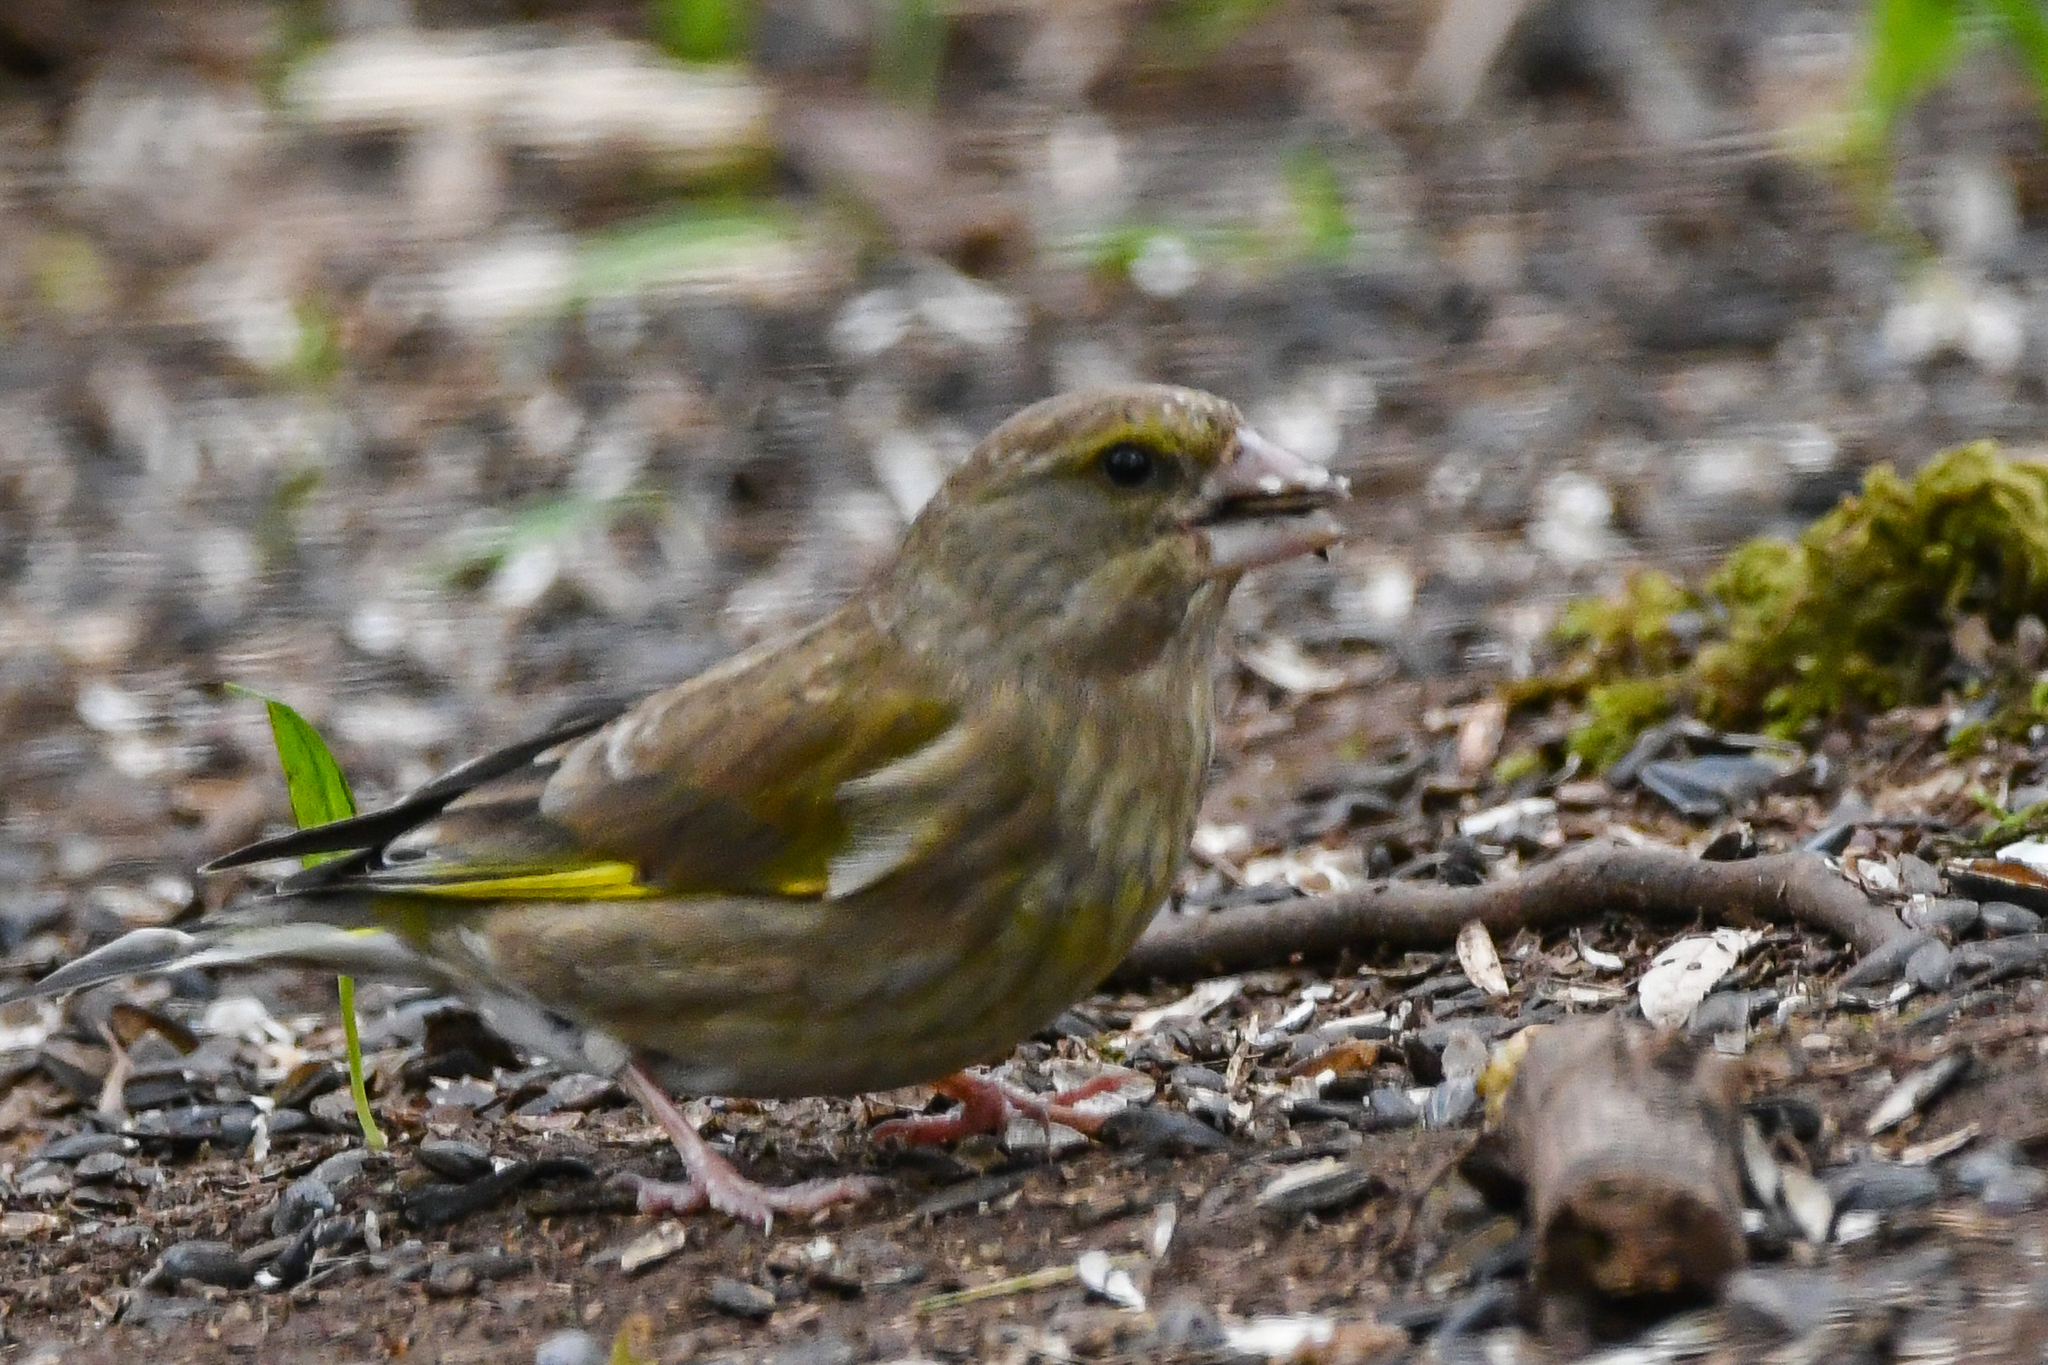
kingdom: Plantae
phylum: Tracheophyta
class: Liliopsida
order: Poales
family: Poaceae
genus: Chloris
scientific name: Chloris chloris
